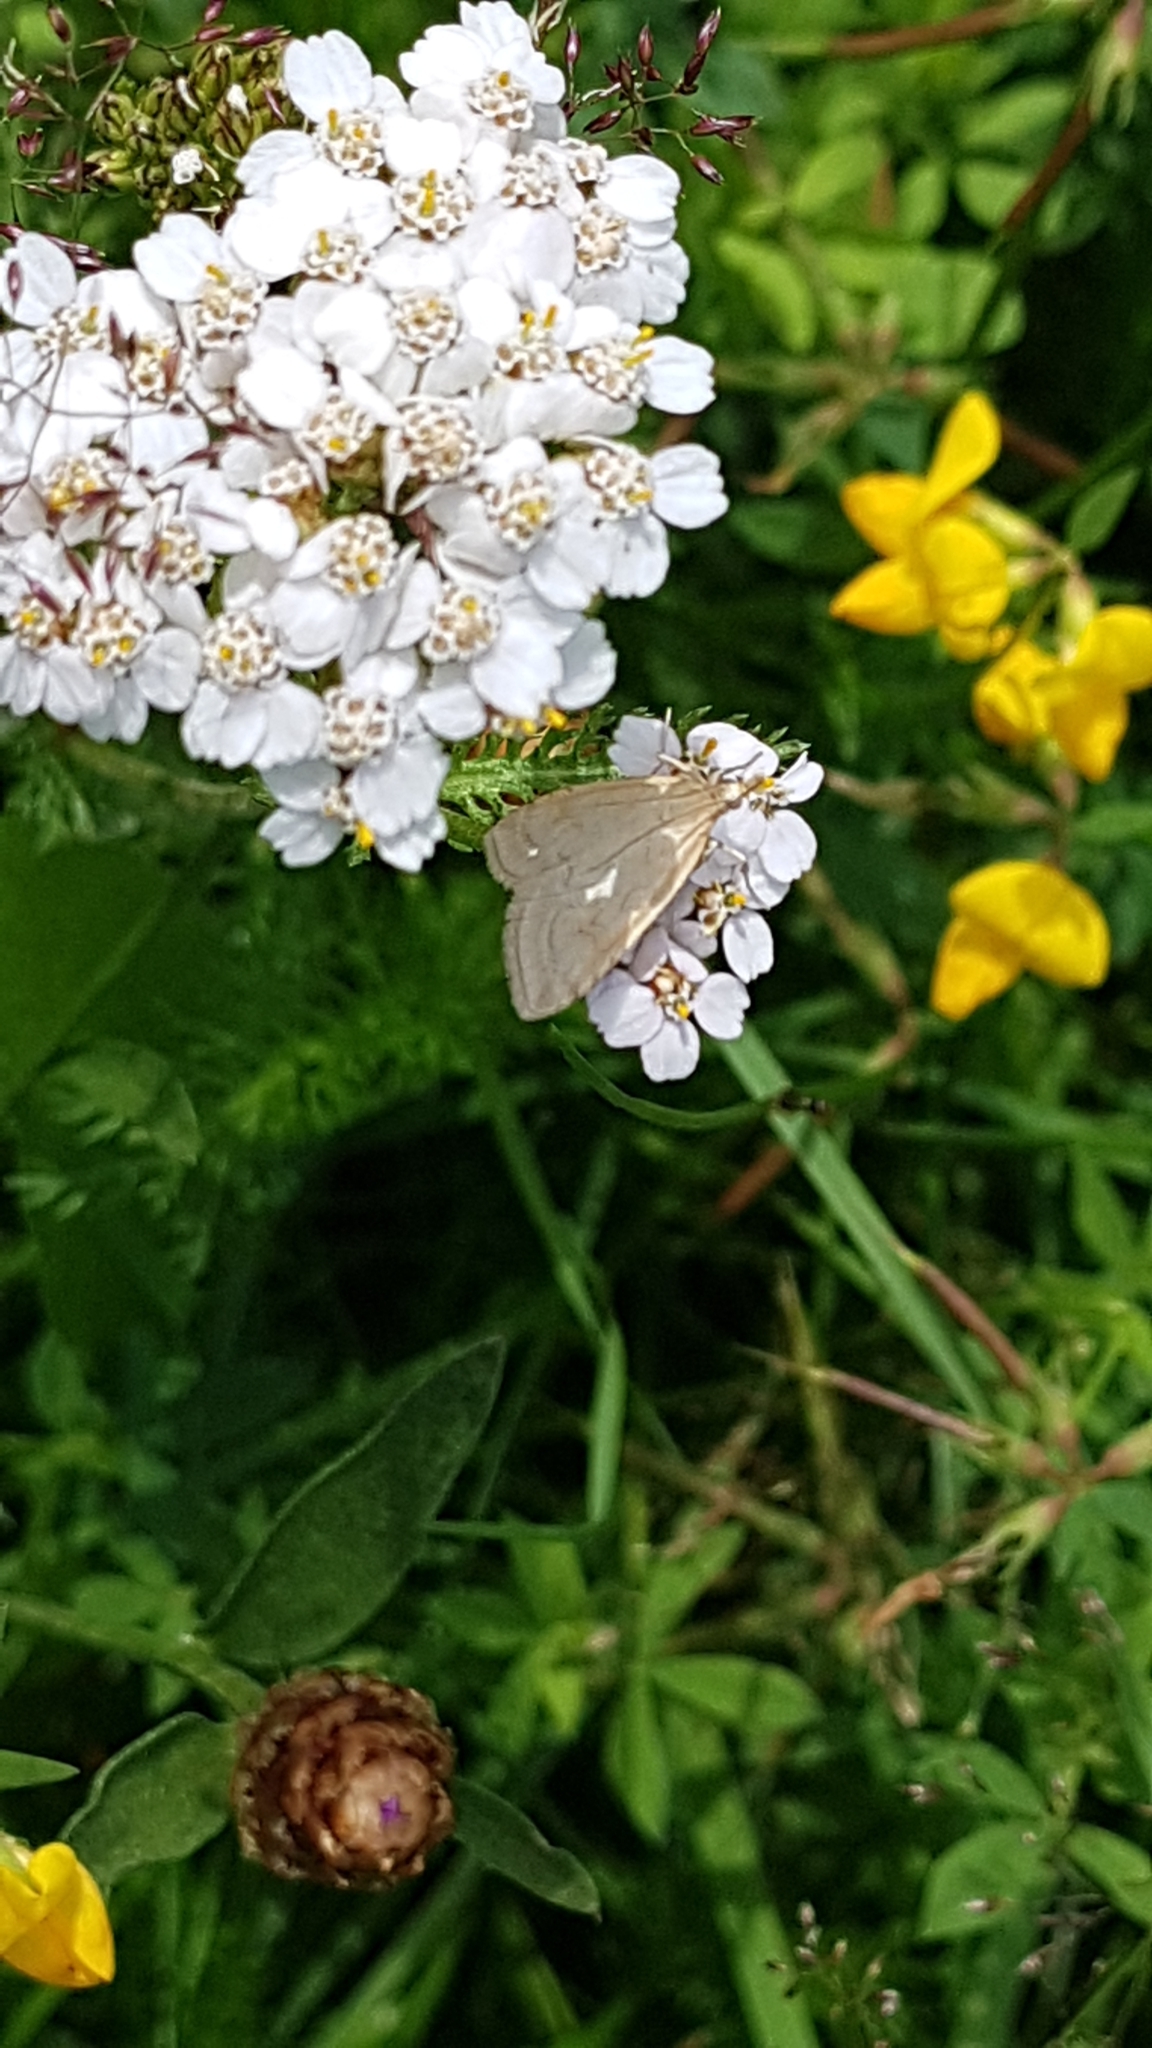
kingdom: Animalia
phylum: Arthropoda
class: Insecta
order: Lepidoptera
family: Crambidae
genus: Udea
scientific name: Udea lutealis
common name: Pale straw pearl
